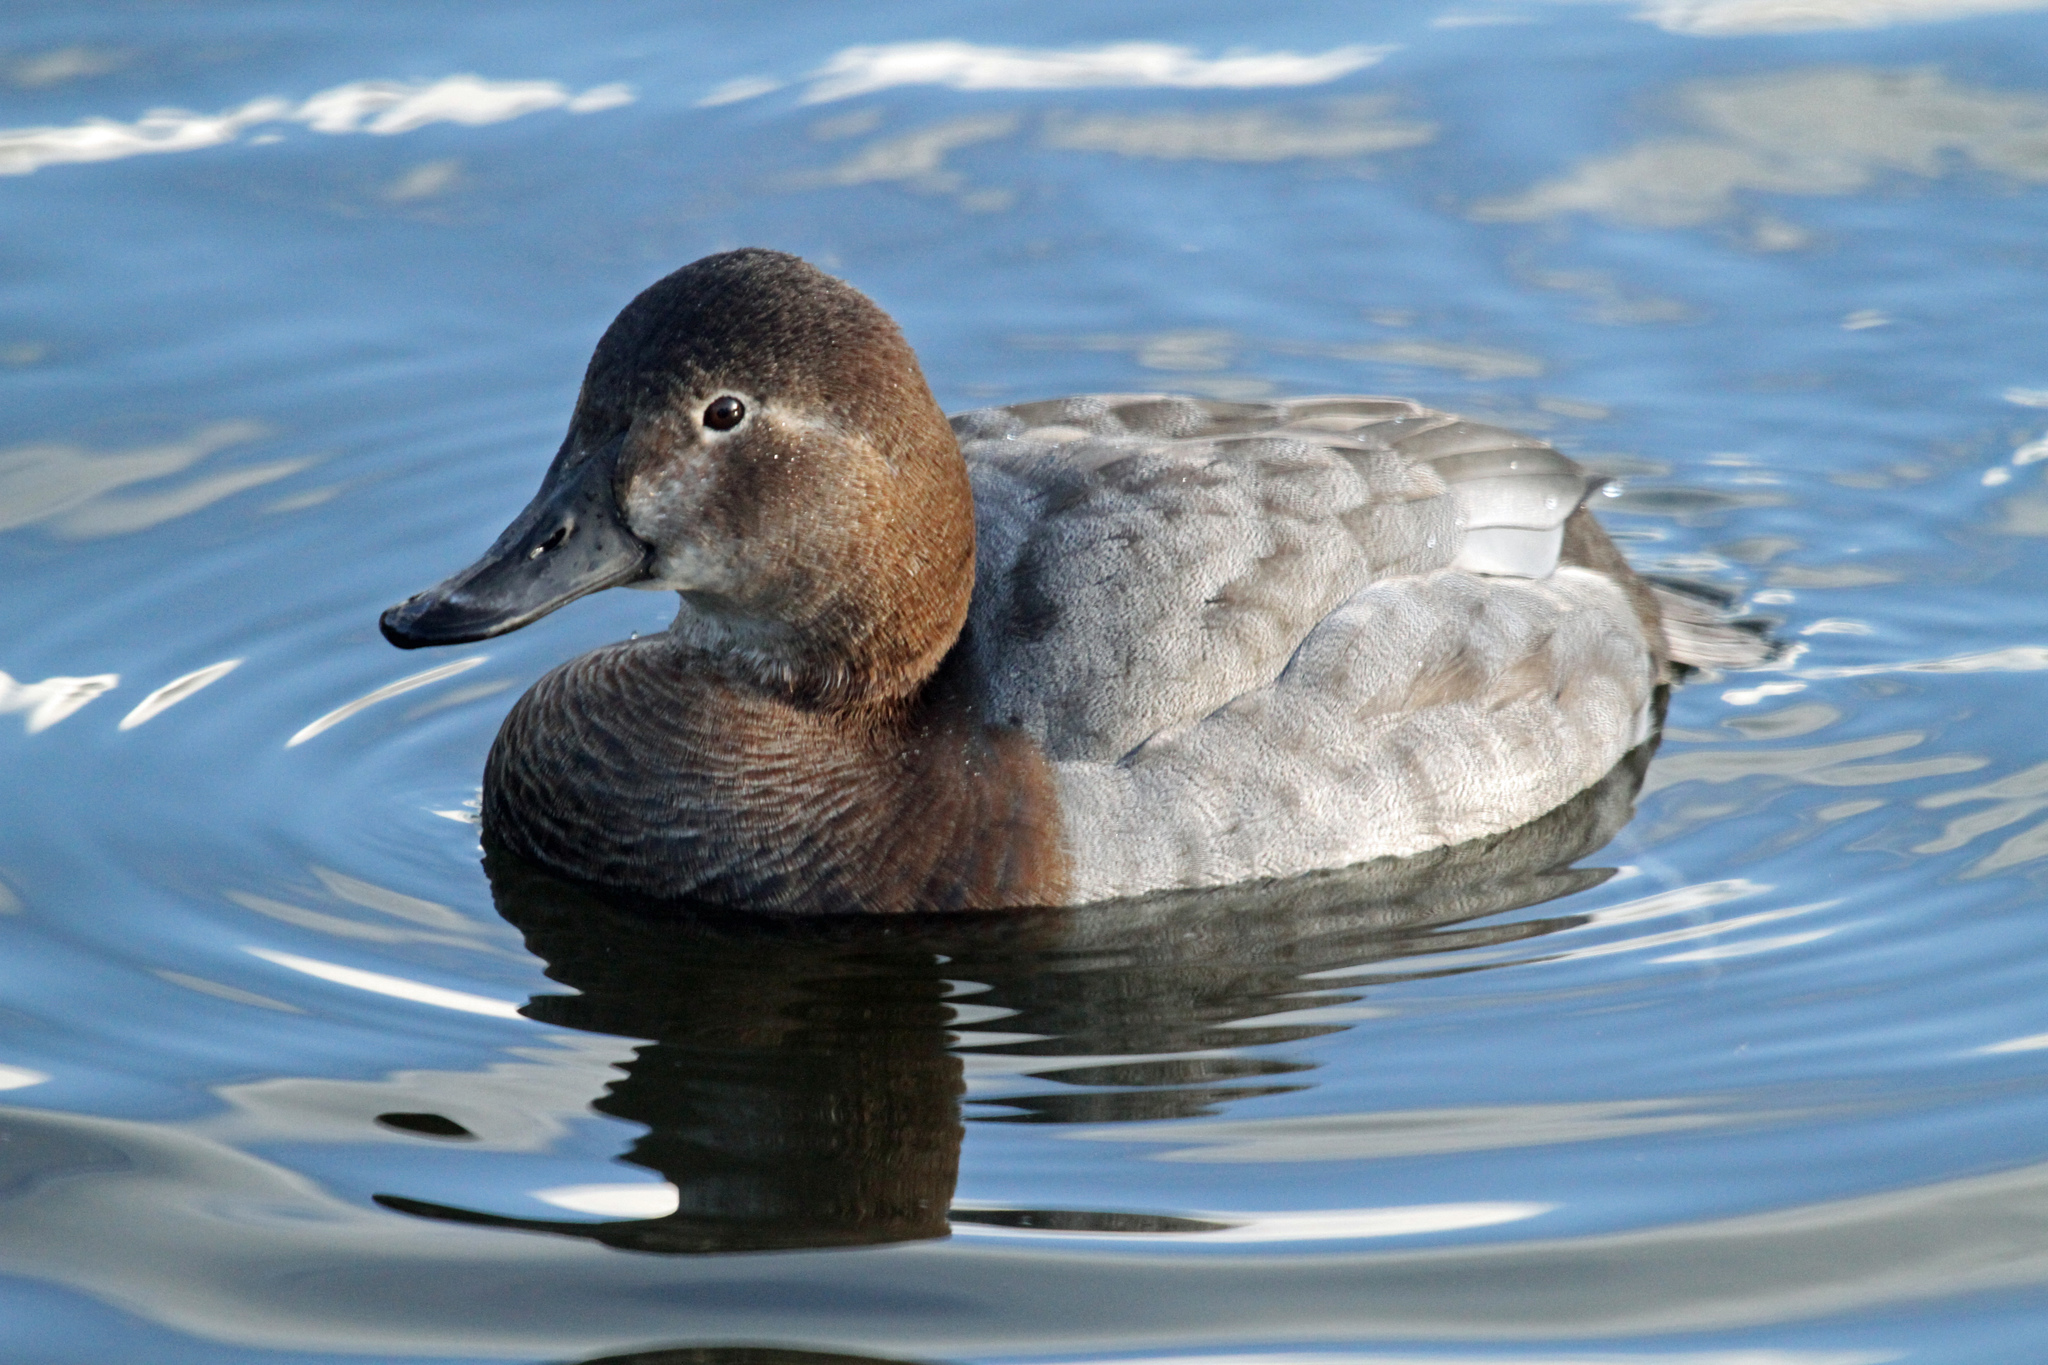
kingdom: Animalia
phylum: Chordata
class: Aves
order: Anseriformes
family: Anatidae
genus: Aythya
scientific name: Aythya ferina
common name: Common pochard
